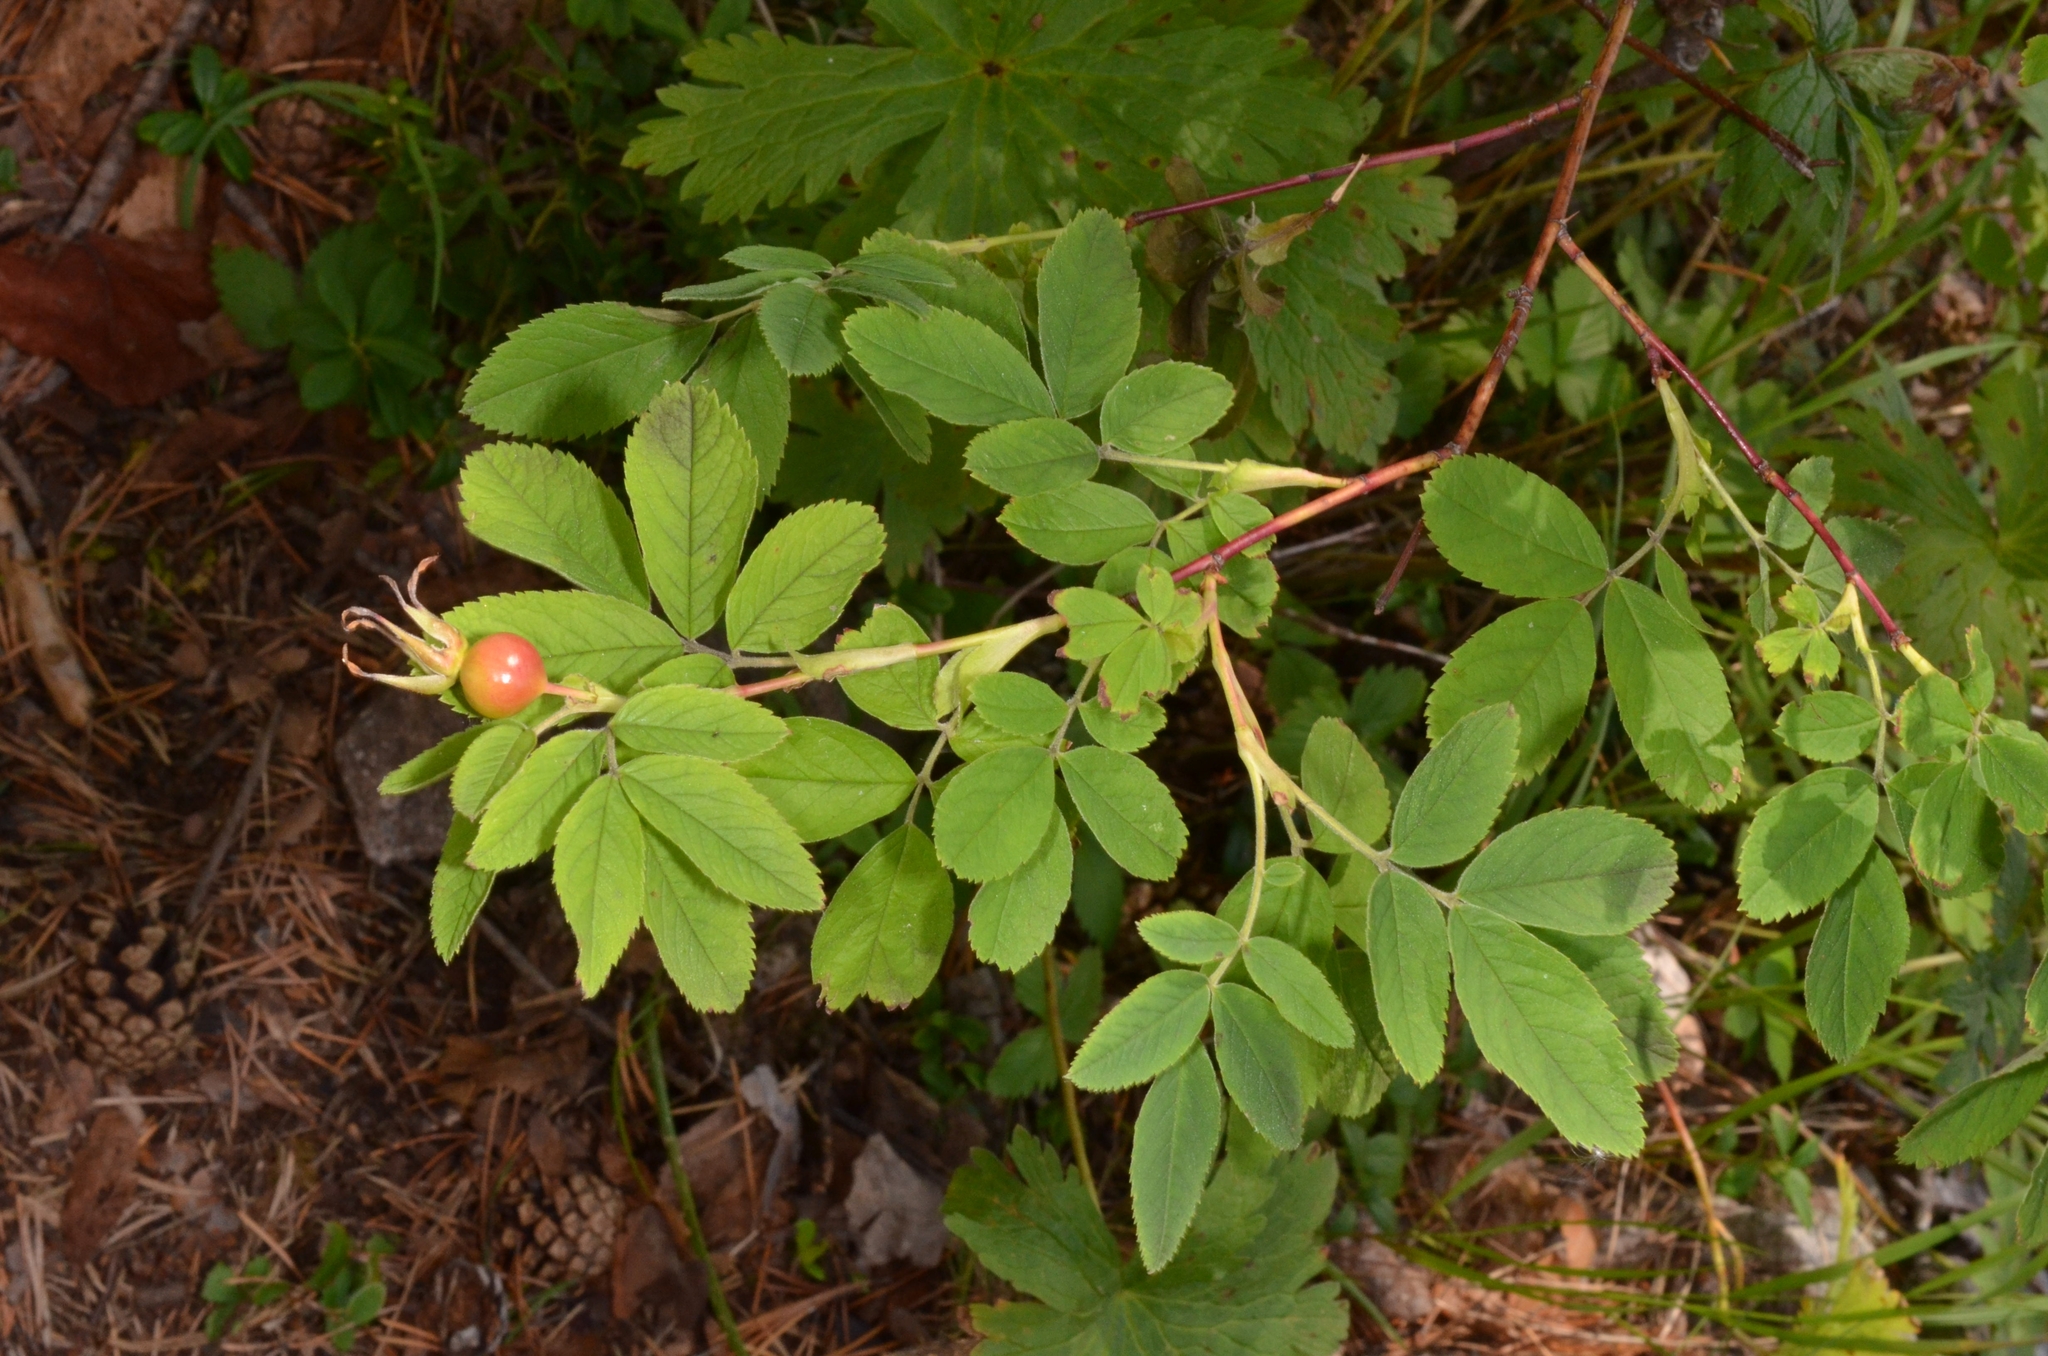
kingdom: Plantae
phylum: Tracheophyta
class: Magnoliopsida
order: Rosales
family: Rosaceae
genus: Rosa
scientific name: Rosa majalis
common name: Cinnamon rose
